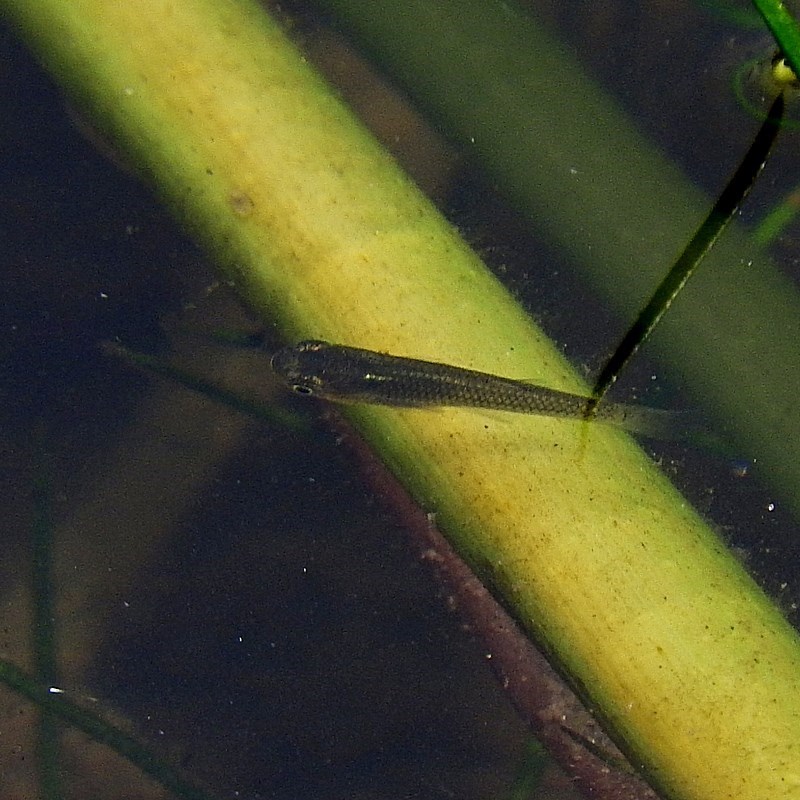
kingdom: Animalia
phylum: Chordata
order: Cyprinodontiformes
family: Poeciliidae
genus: Gambusia
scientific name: Gambusia holbrooki
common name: Eastern mosquitofish
